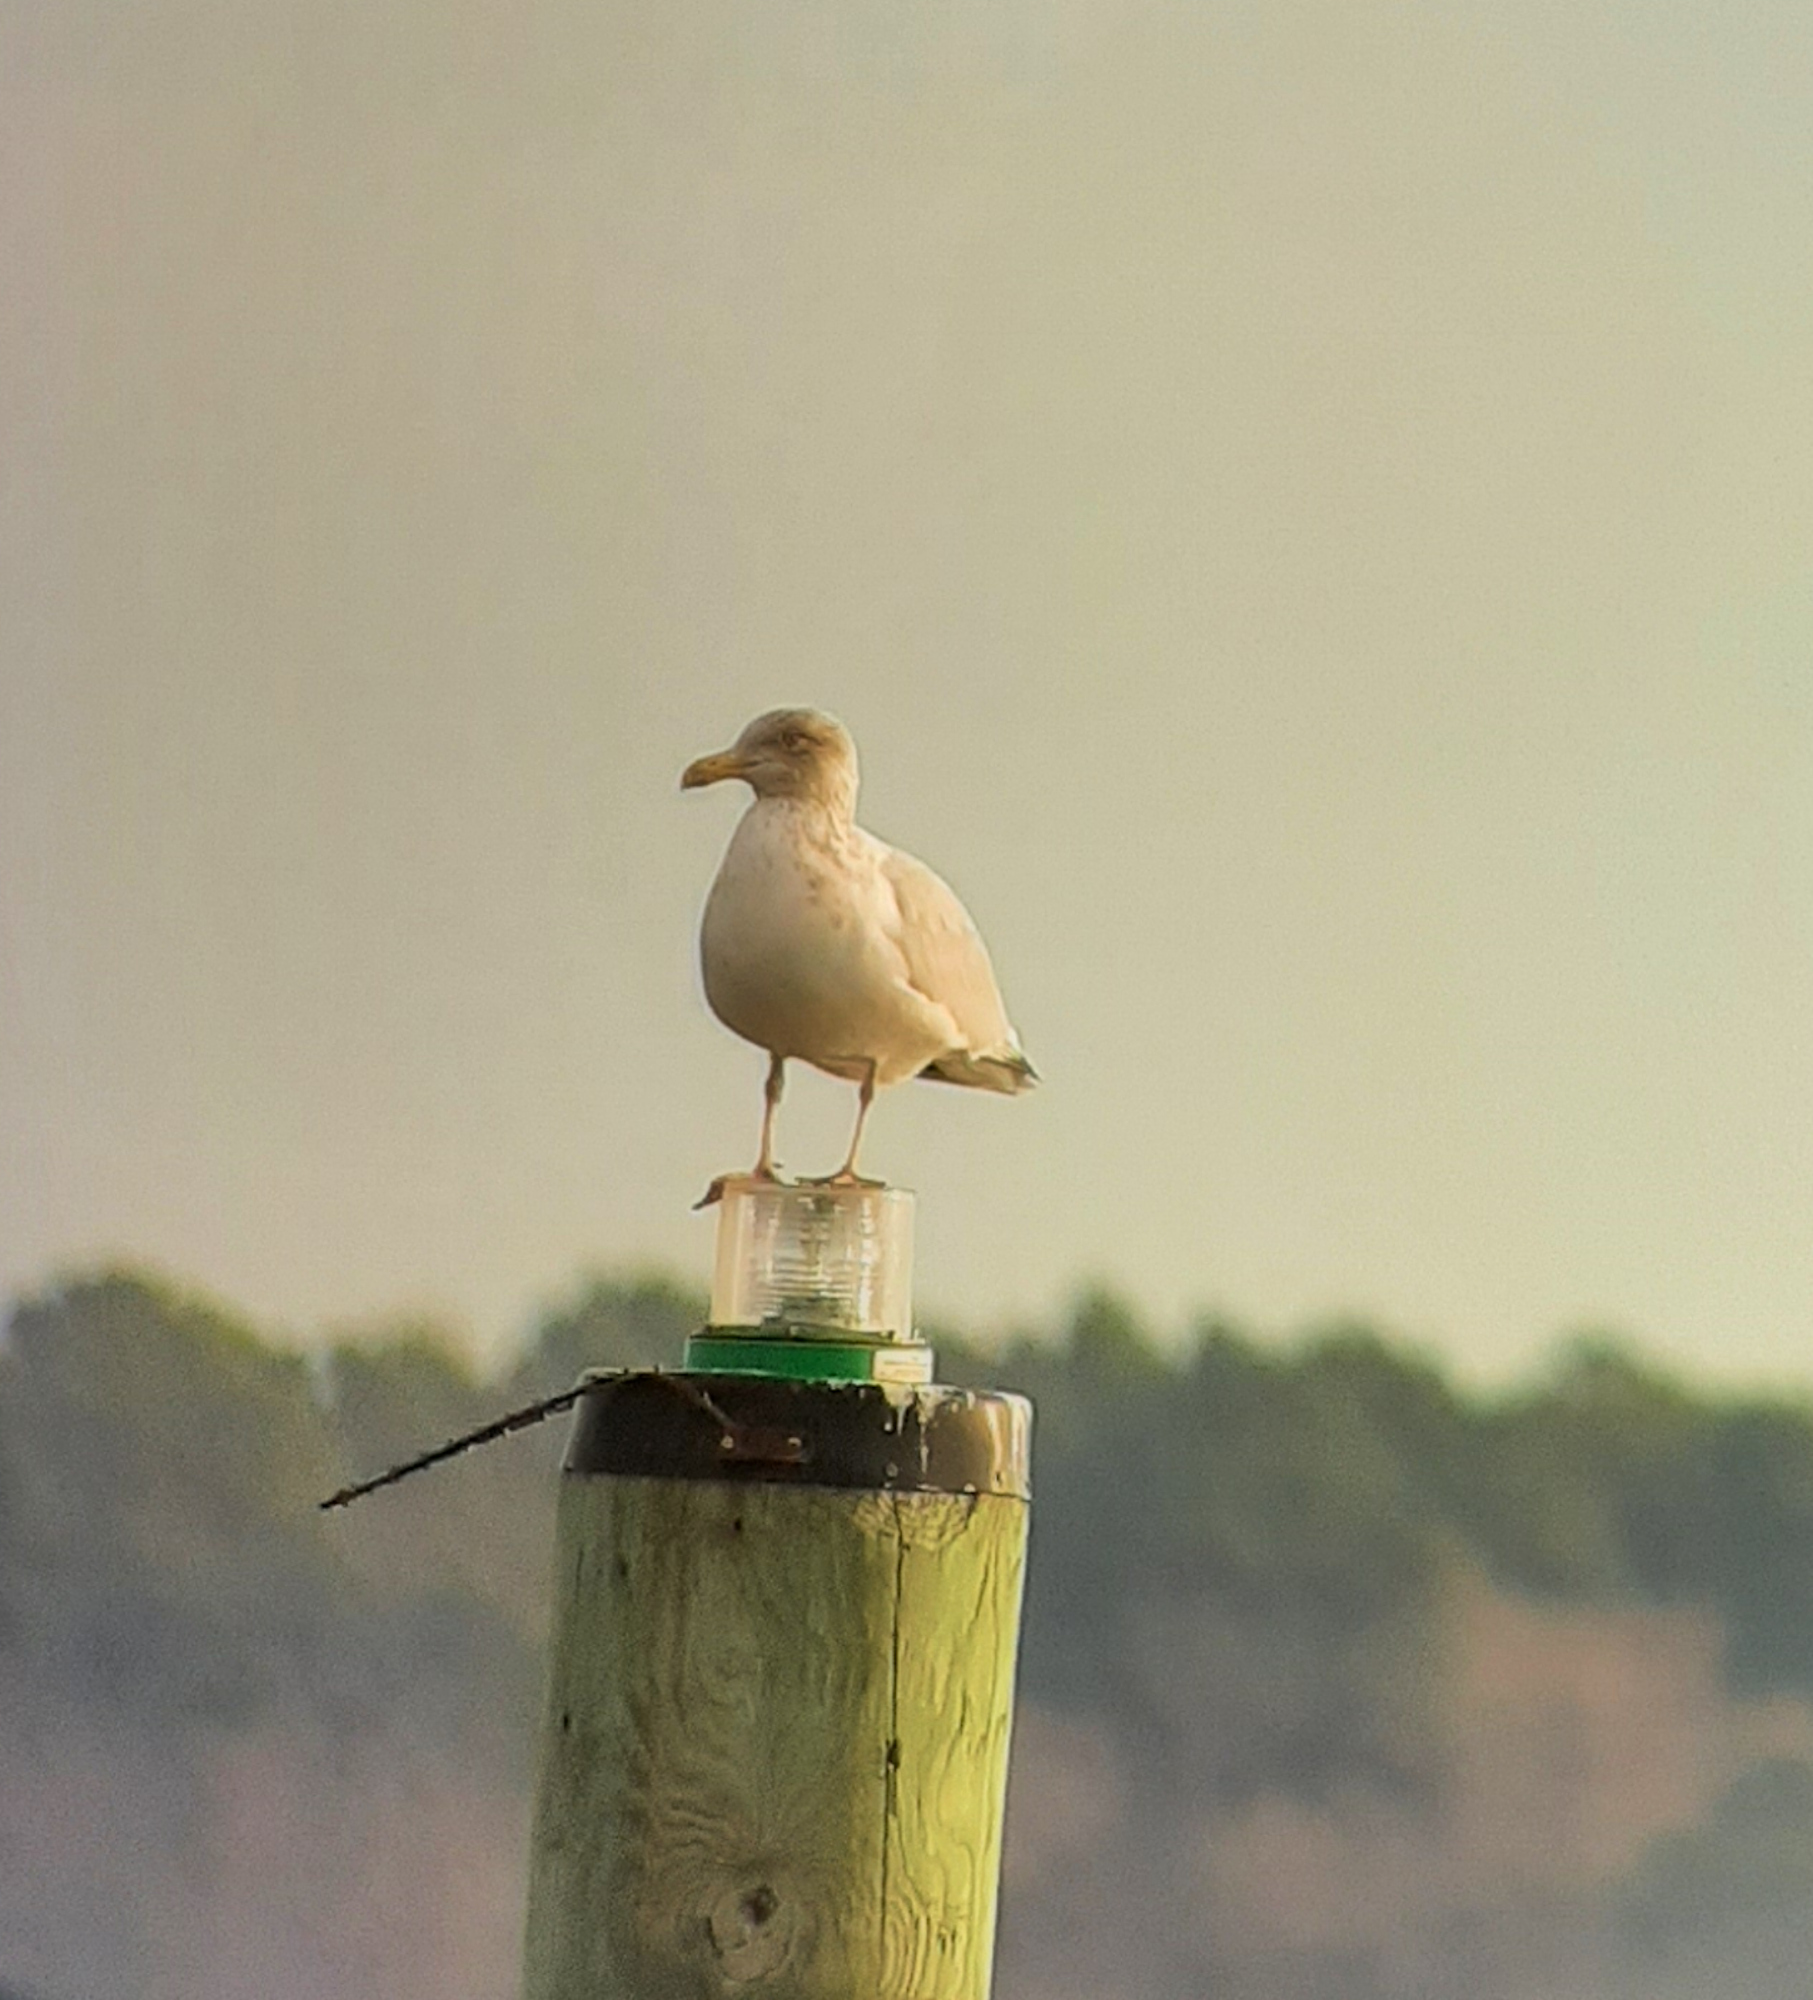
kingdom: Animalia
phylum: Chordata
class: Aves
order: Charadriiformes
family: Laridae
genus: Larus
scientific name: Larus argentatus
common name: Herring gull
